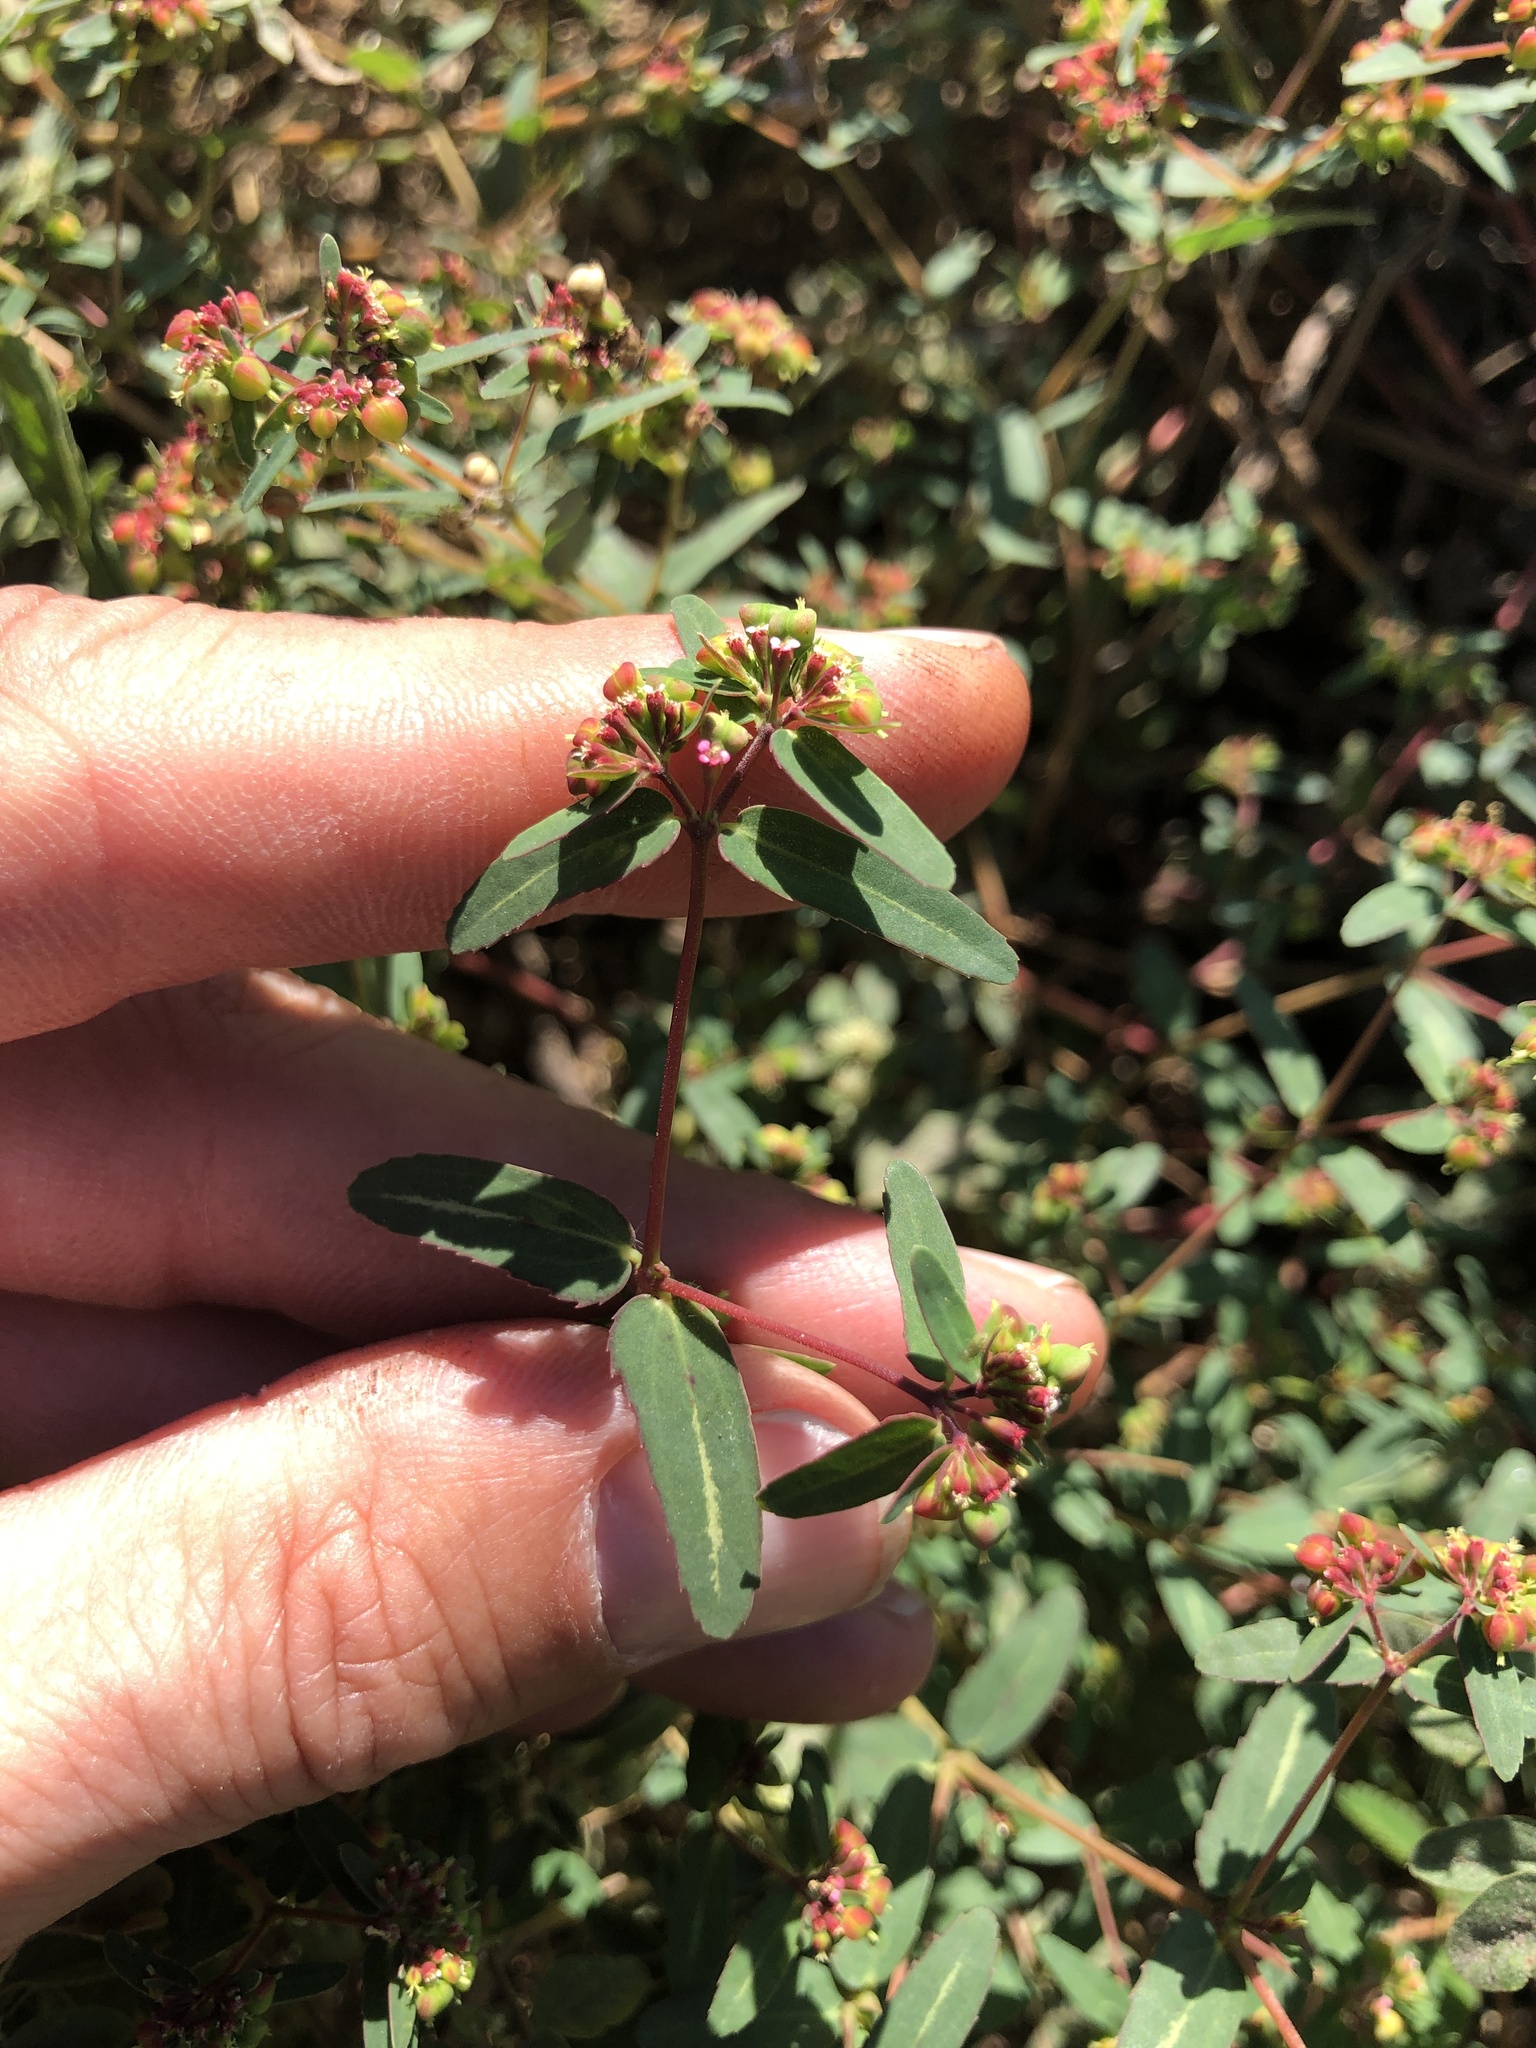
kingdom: Plantae
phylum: Tracheophyta
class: Magnoliopsida
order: Malpighiales
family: Euphorbiaceae
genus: Euphorbia
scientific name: Euphorbia nutans
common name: Eyebane
